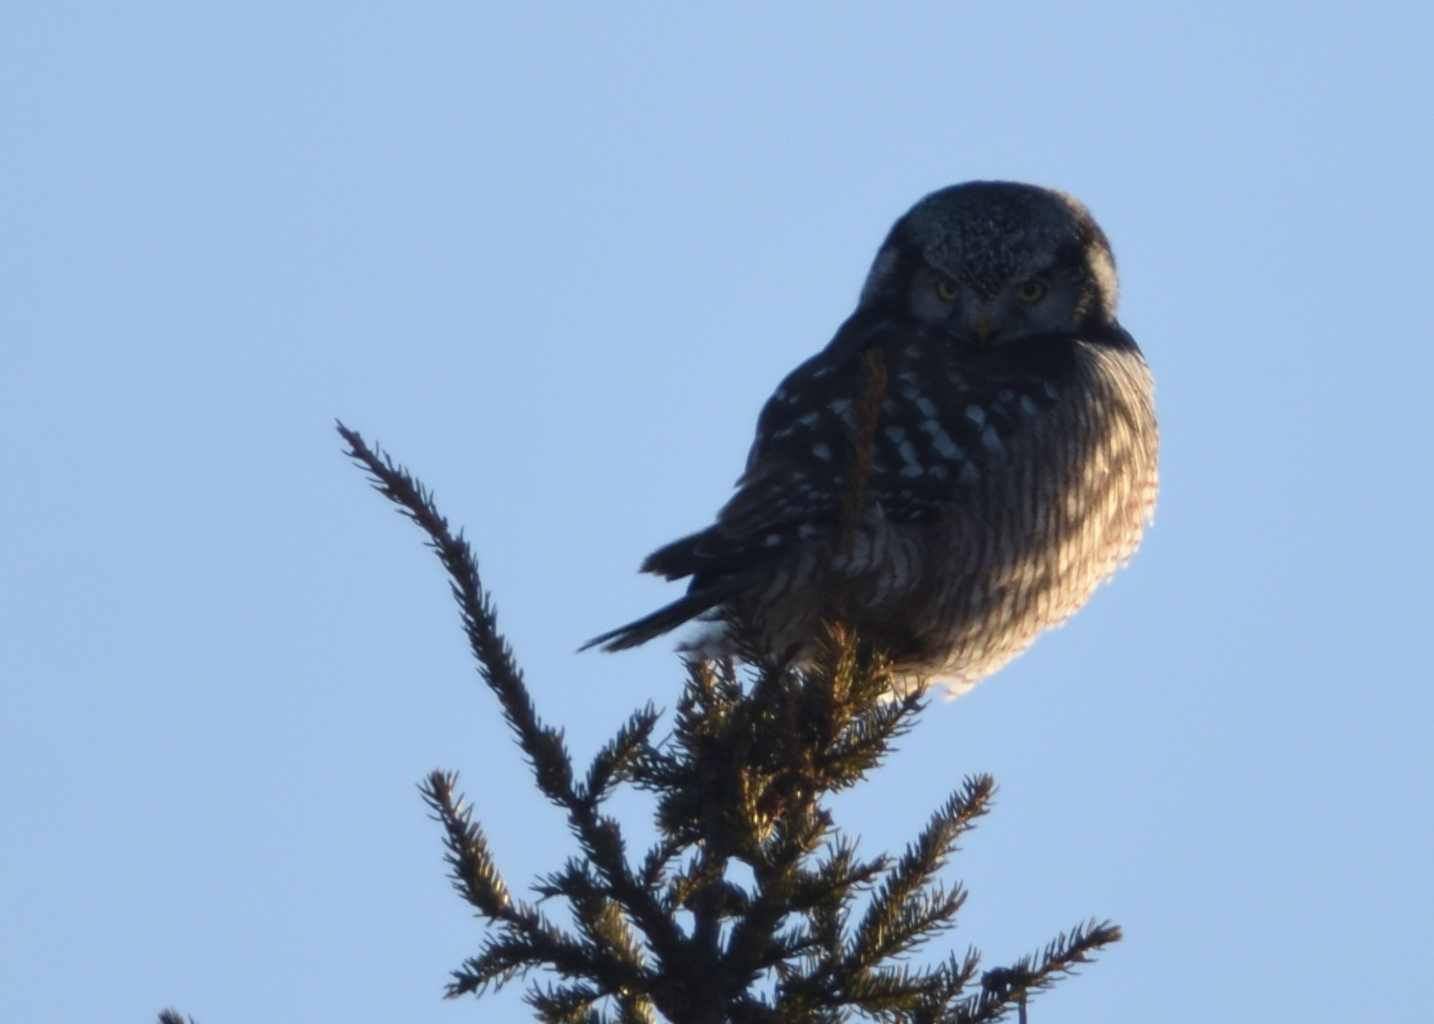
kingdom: Animalia
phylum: Chordata
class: Aves
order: Strigiformes
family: Strigidae
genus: Surnia
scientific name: Surnia ulula
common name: Northern hawk-owl
